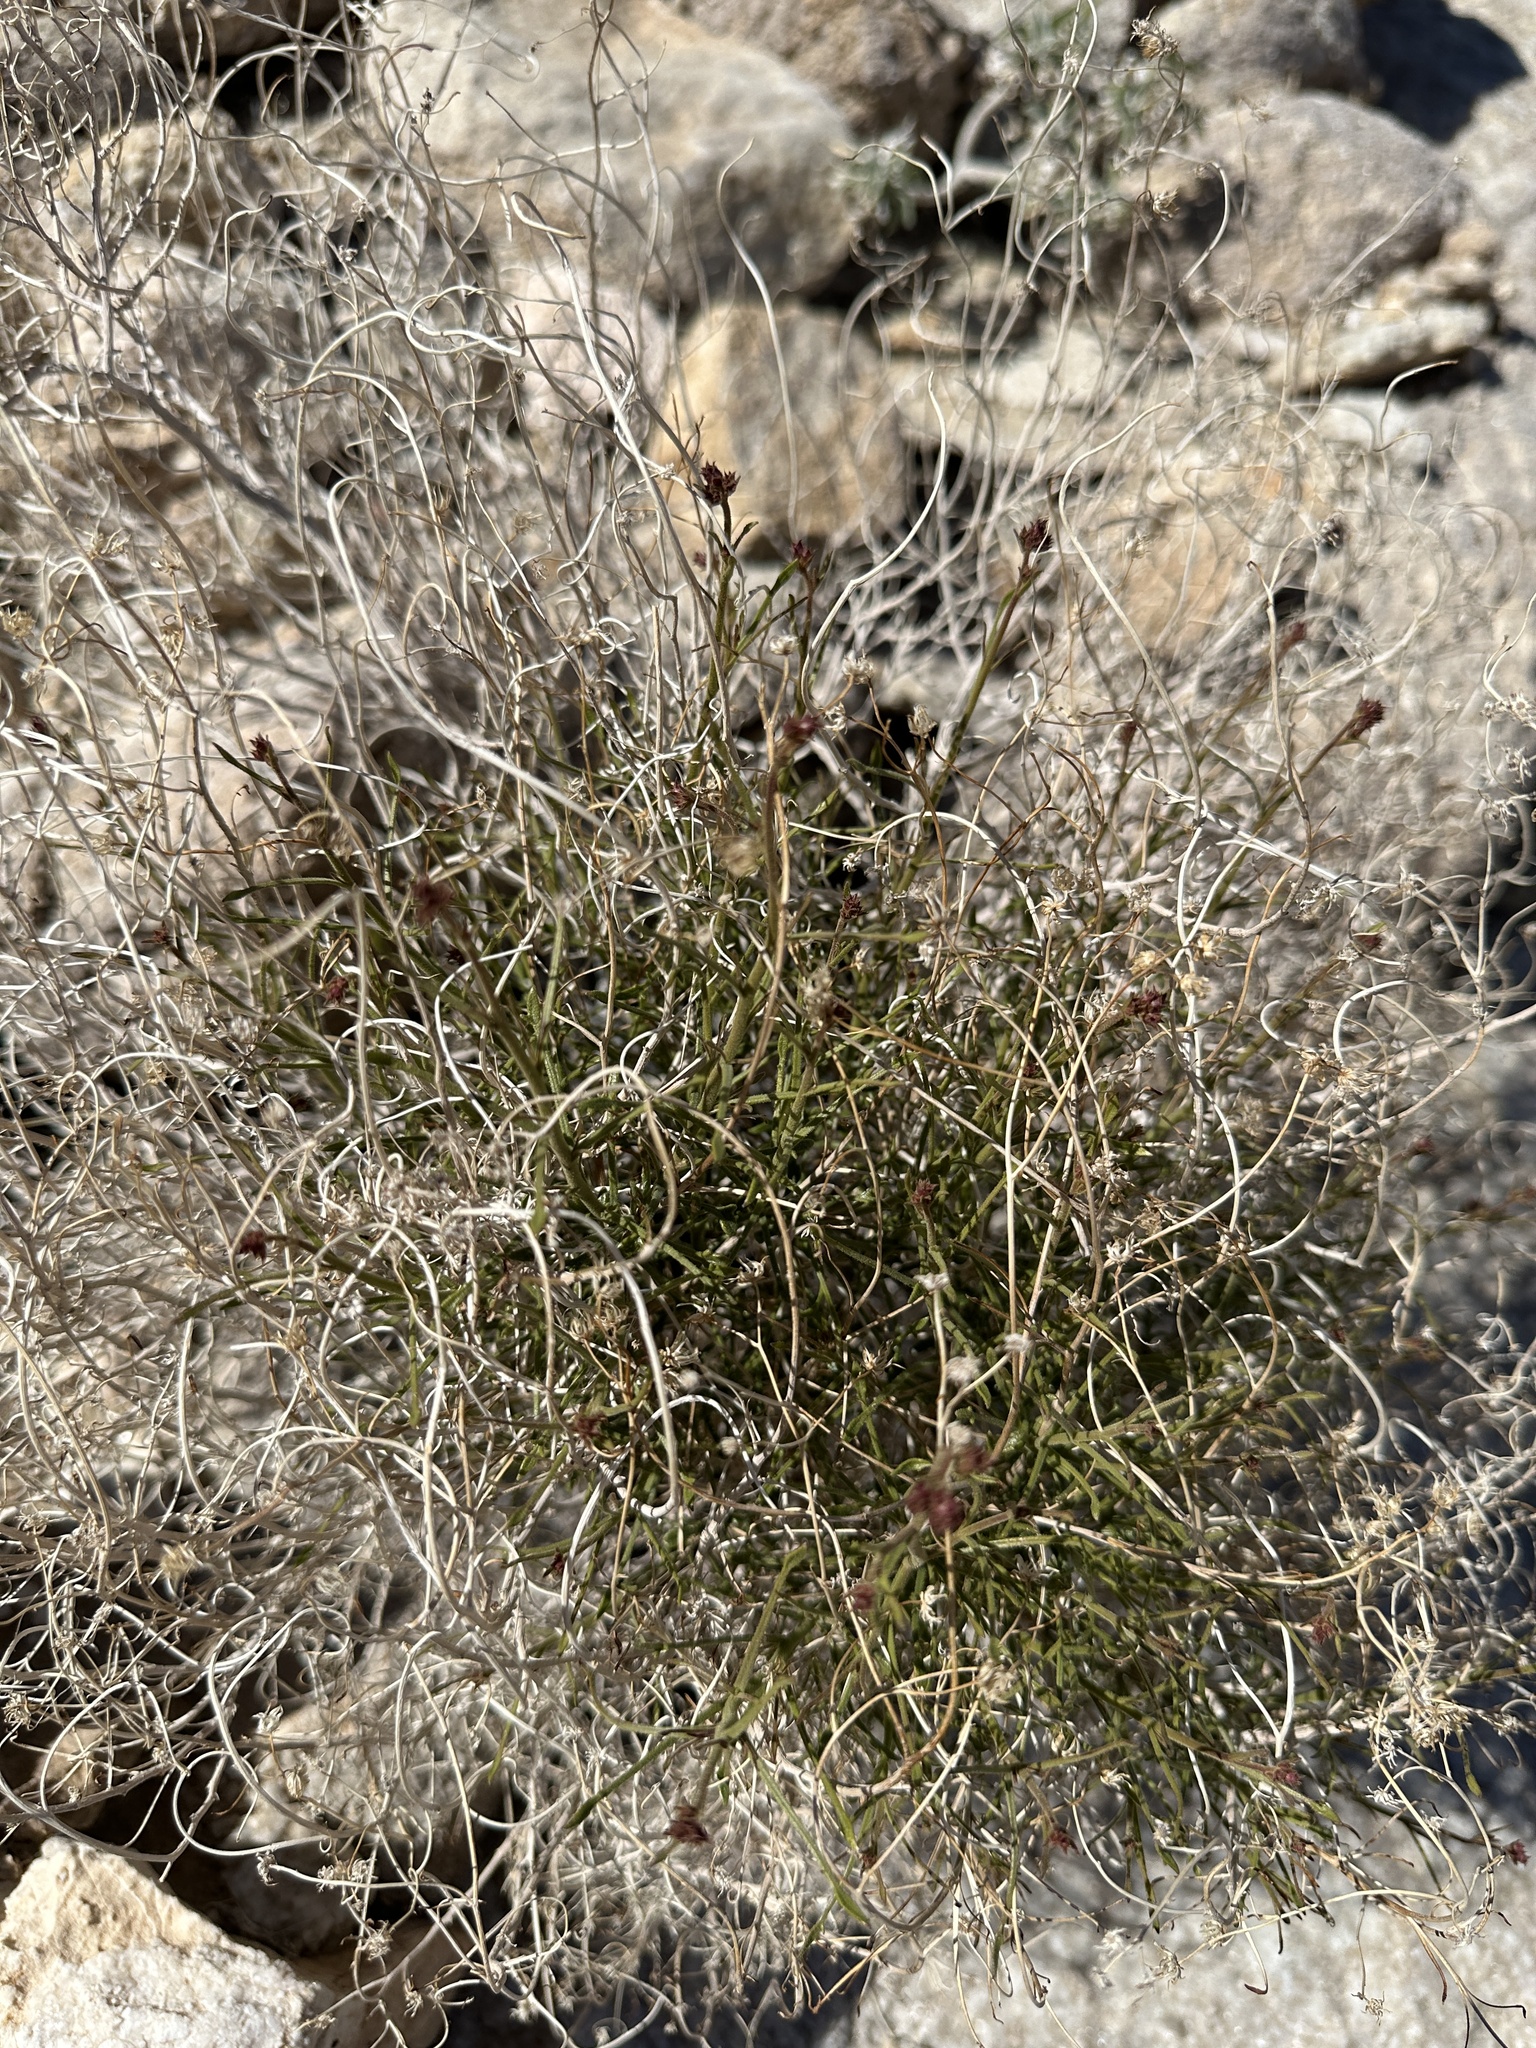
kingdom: Plantae
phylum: Tracheophyta
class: Magnoliopsida
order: Asterales
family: Asteraceae
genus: Pleurocoronis
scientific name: Pleurocoronis pluriseta
